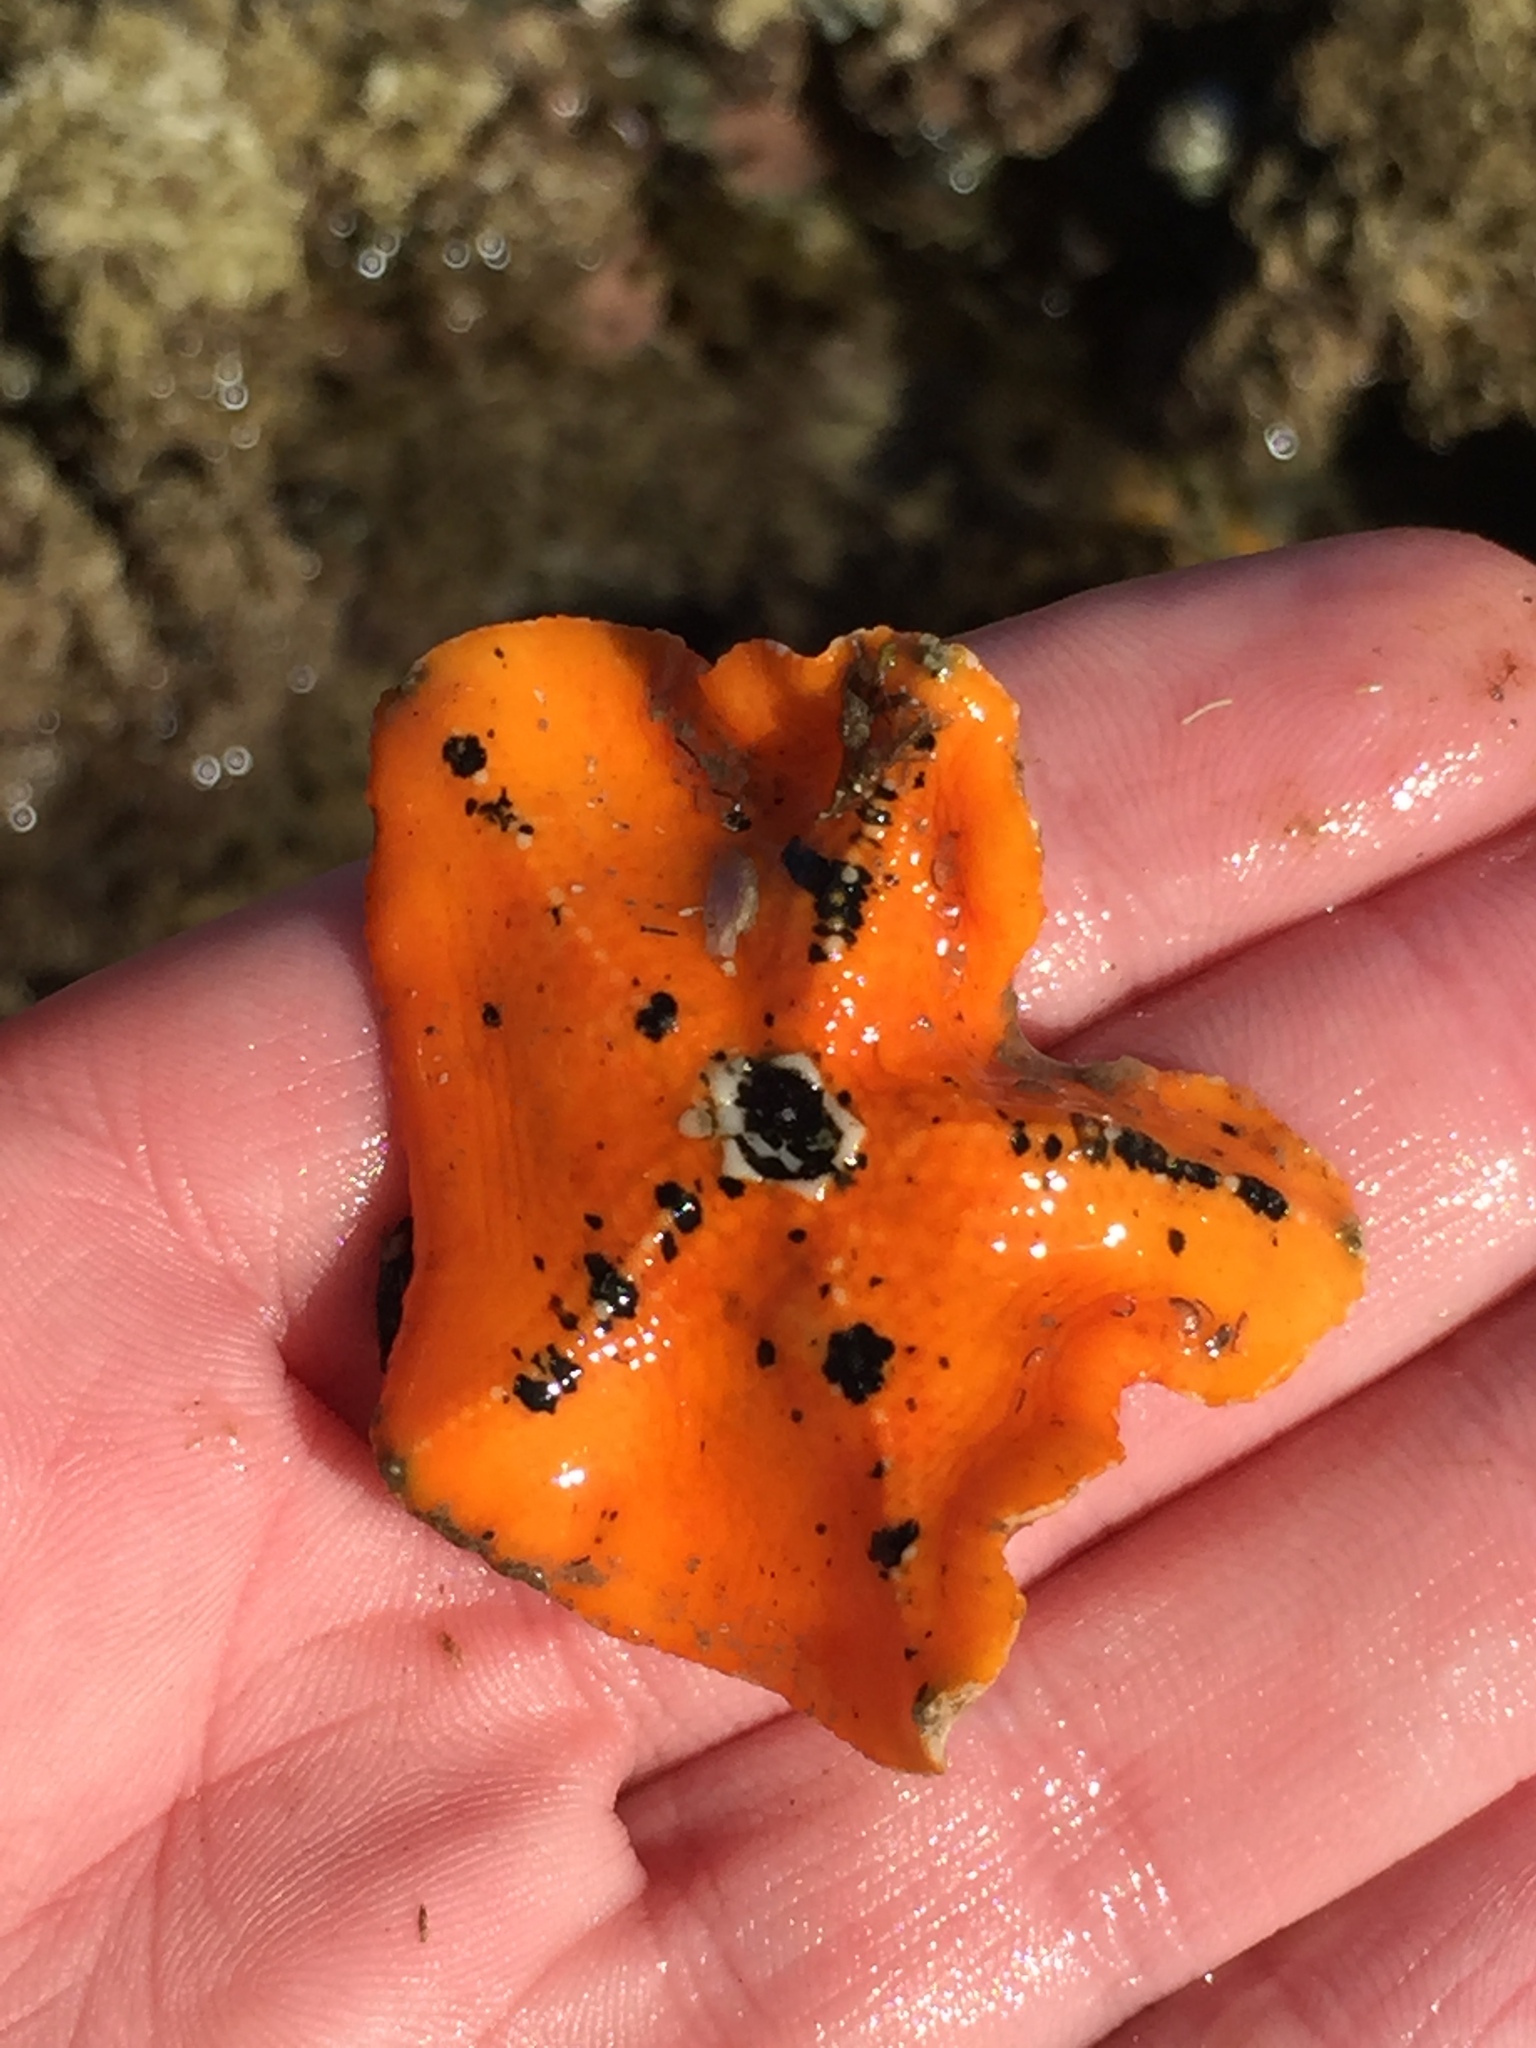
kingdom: Animalia
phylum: Echinodermata
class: Asteroidea
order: Valvatida
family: Asterinidae
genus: Stegnaster
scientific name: Stegnaster inflatus
